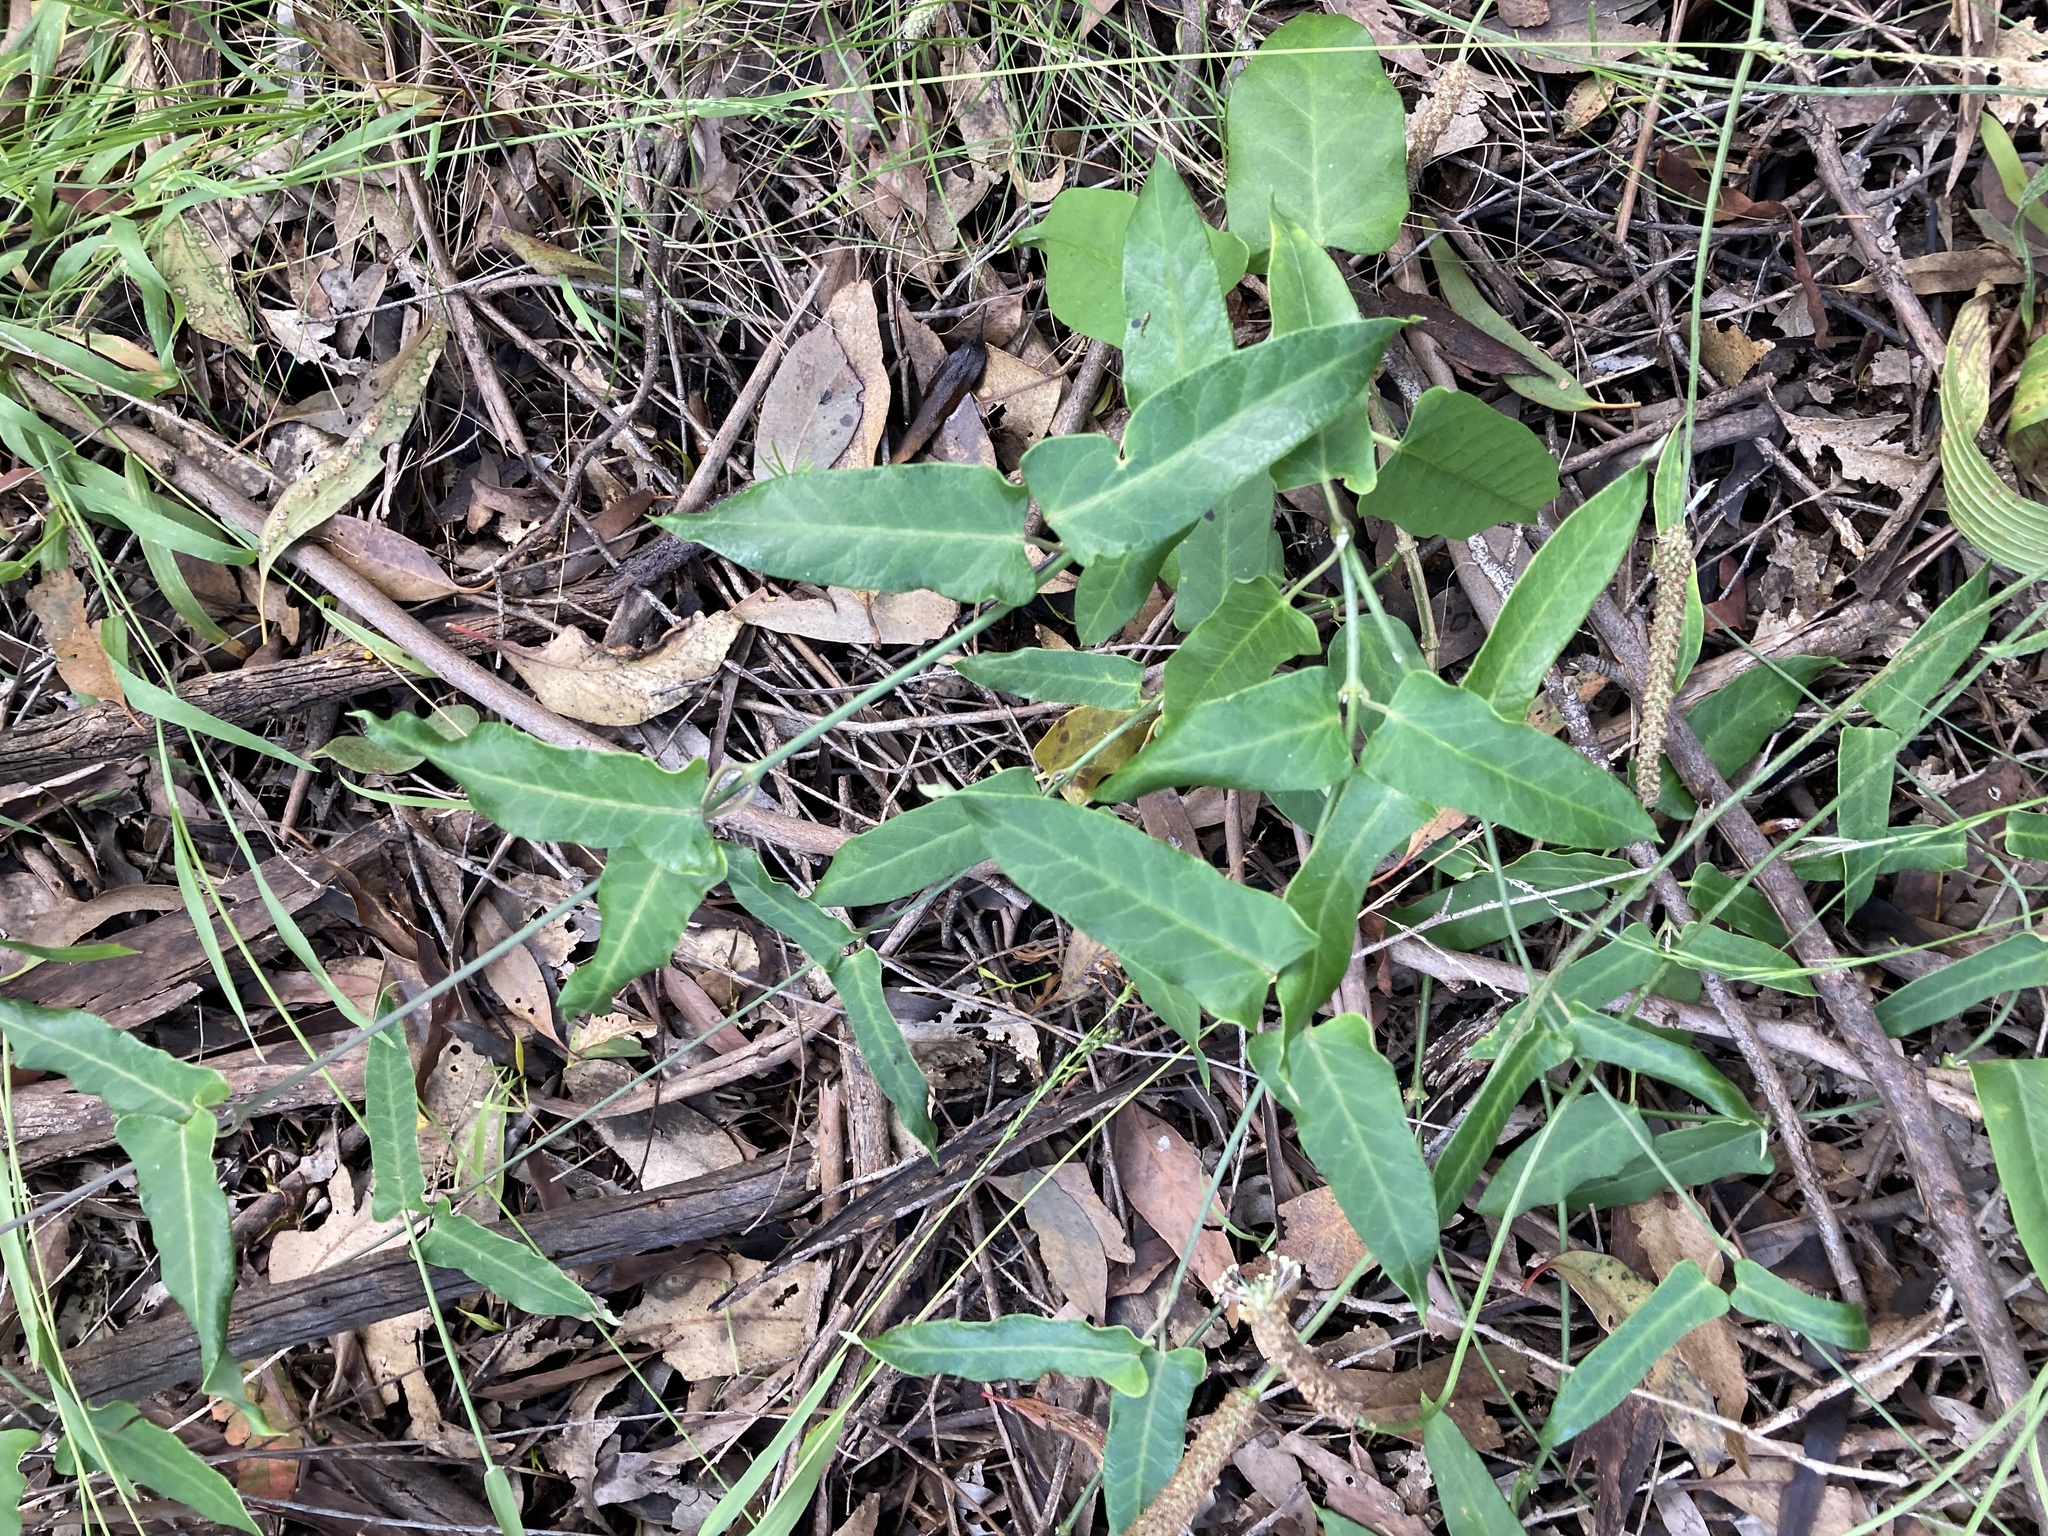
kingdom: Plantae
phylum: Tracheophyta
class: Magnoliopsida
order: Gentianales
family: Apocynaceae
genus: Araujia
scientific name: Araujia sericifera
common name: White bladderflower
